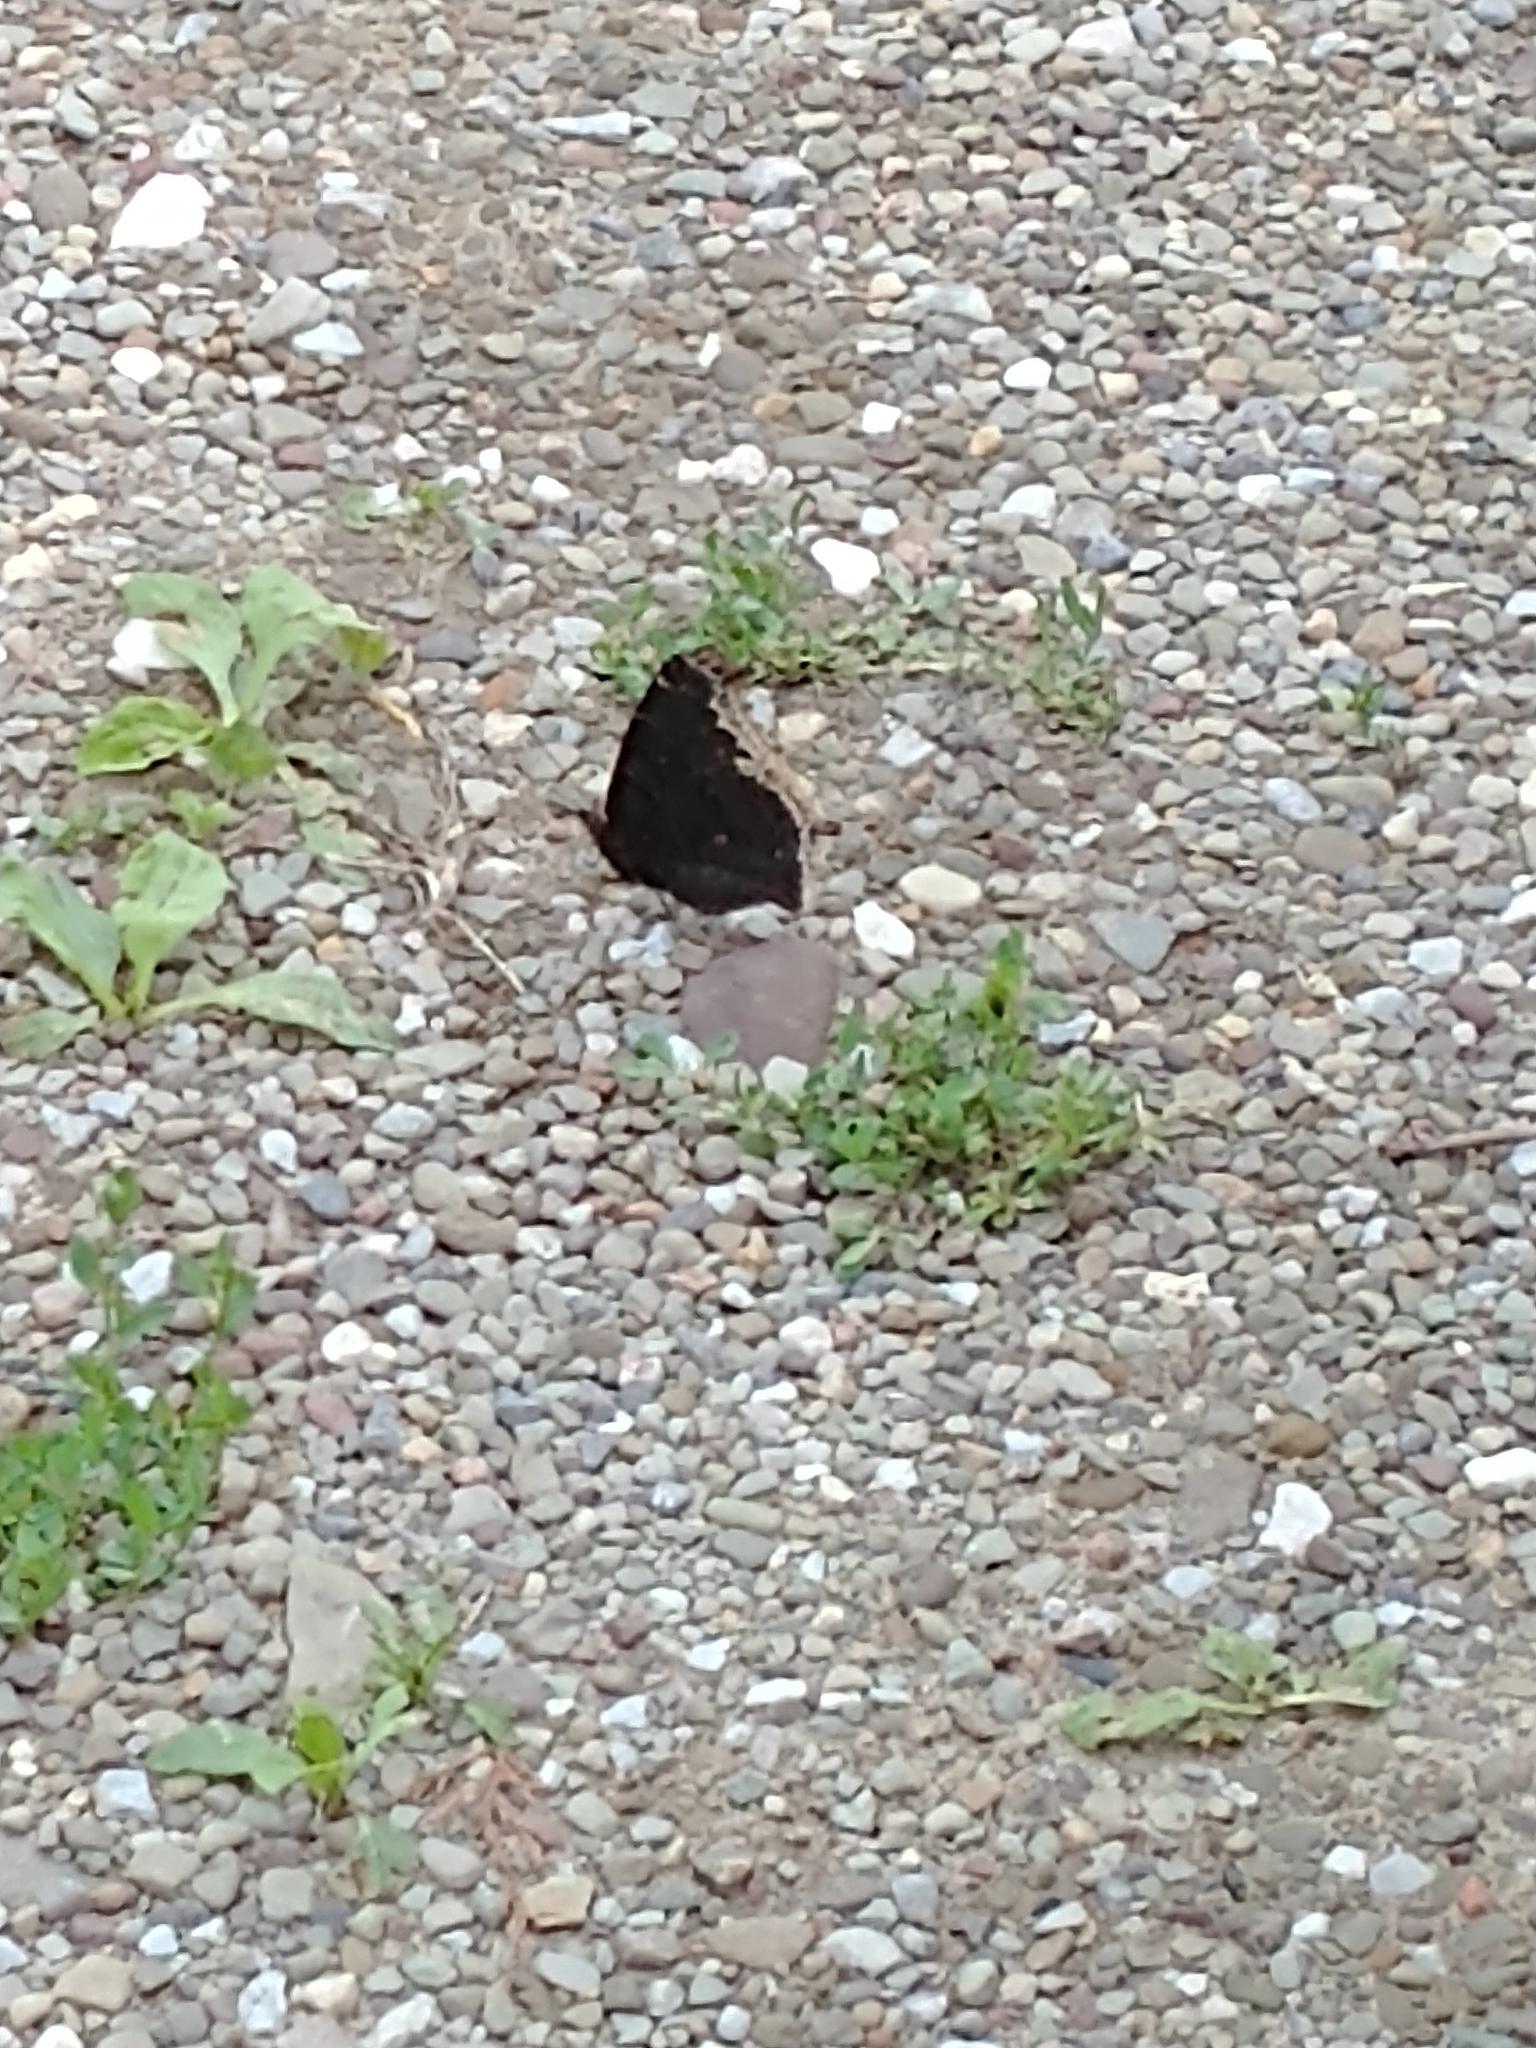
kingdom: Animalia
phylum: Arthropoda
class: Insecta
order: Lepidoptera
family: Nymphalidae
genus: Nymphalis
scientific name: Nymphalis antiopa
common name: Camberwell beauty
